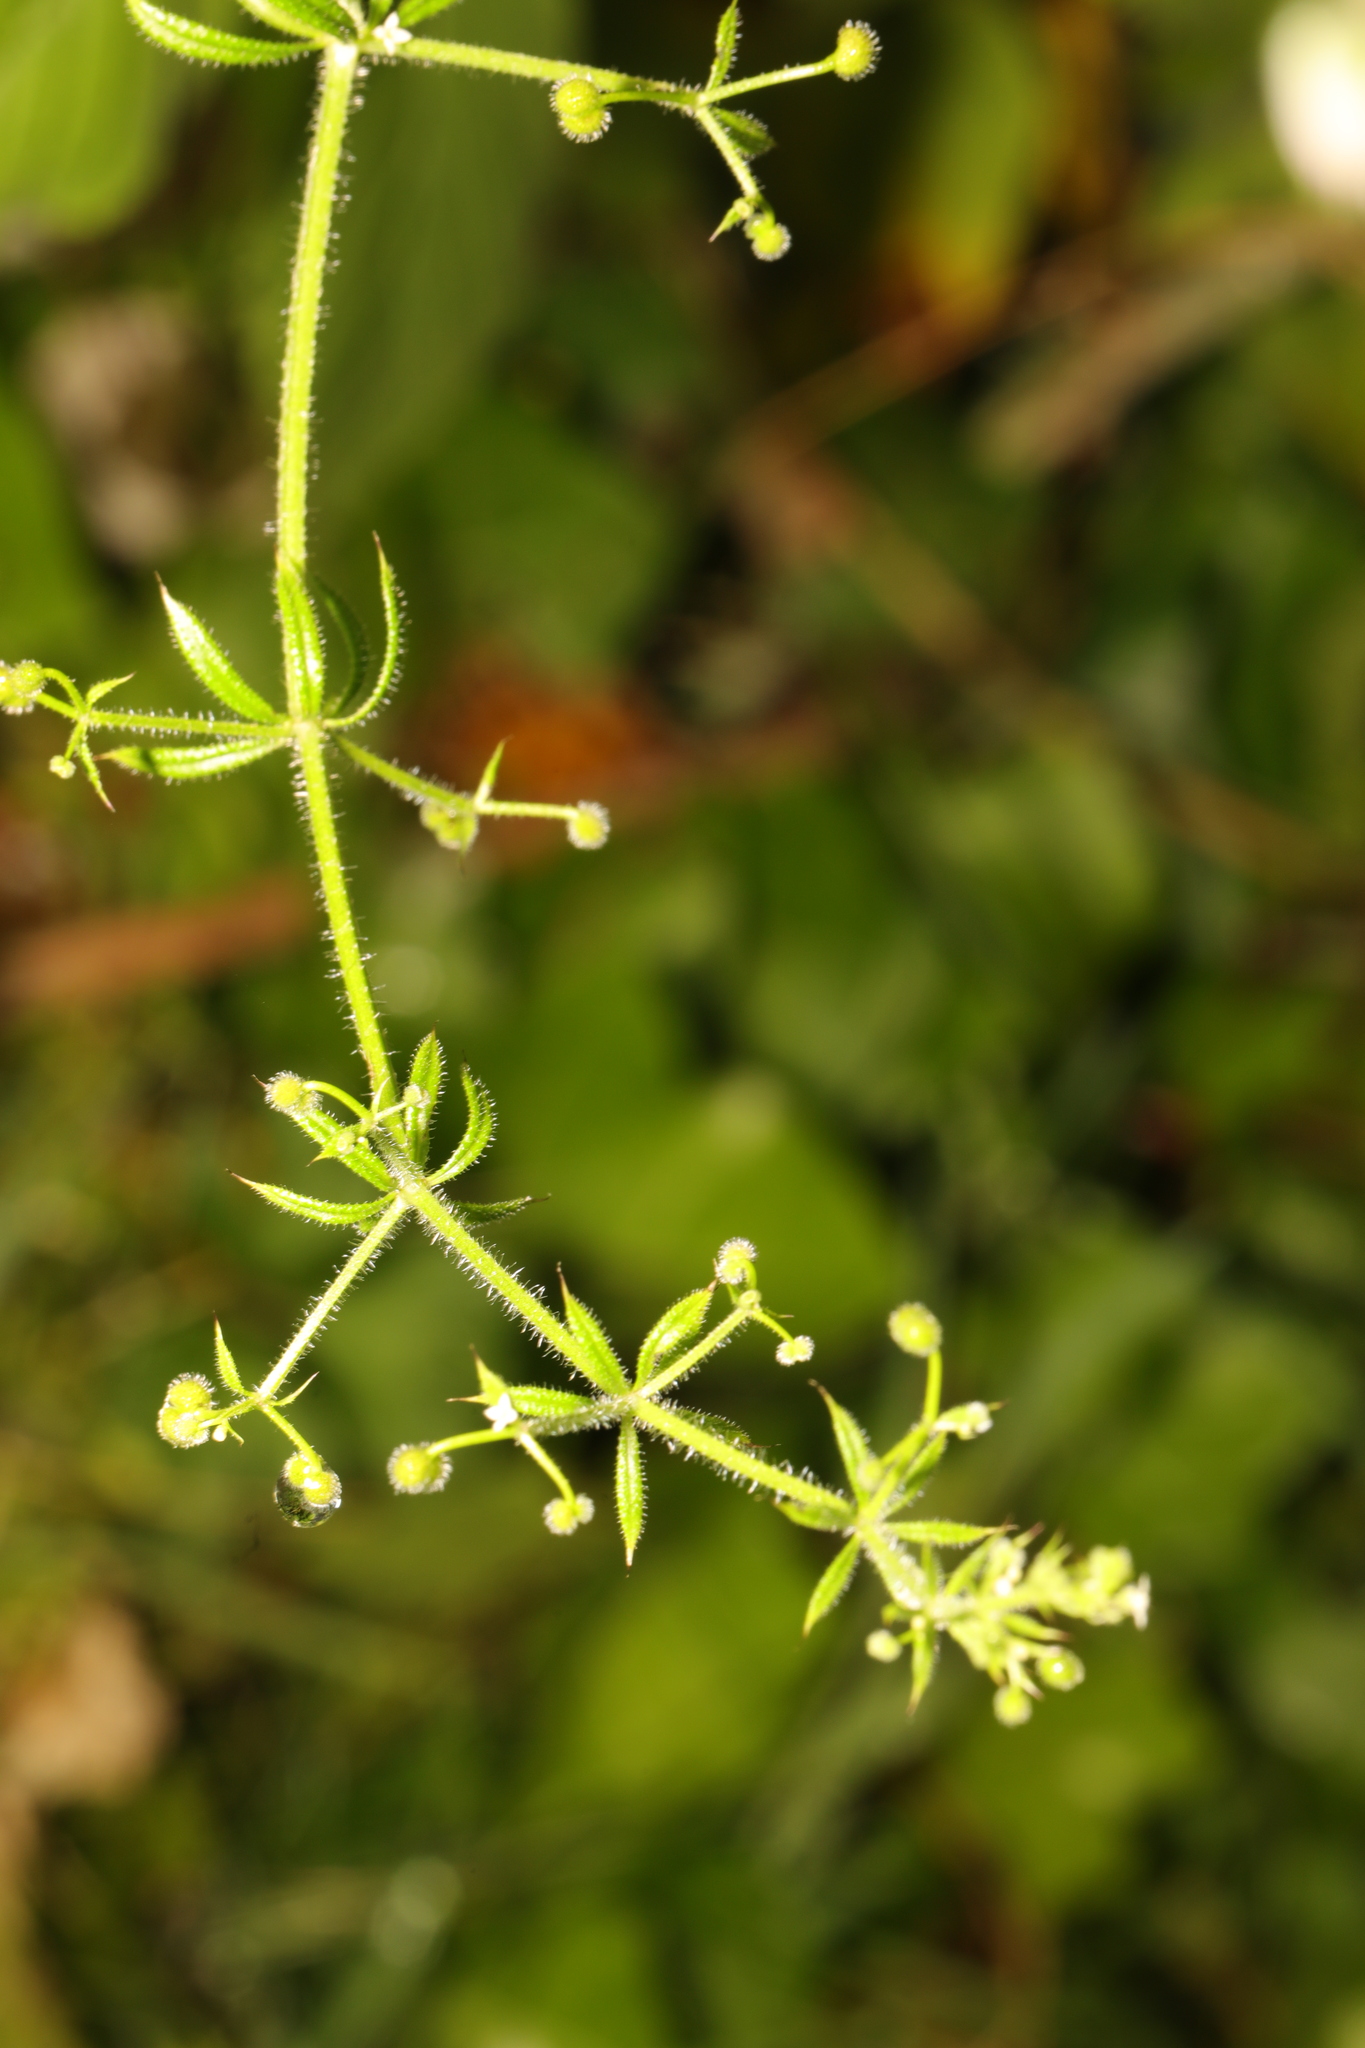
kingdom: Plantae
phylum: Tracheophyta
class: Magnoliopsida
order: Gentianales
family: Rubiaceae
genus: Galium
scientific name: Galium aparine
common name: Cleavers
